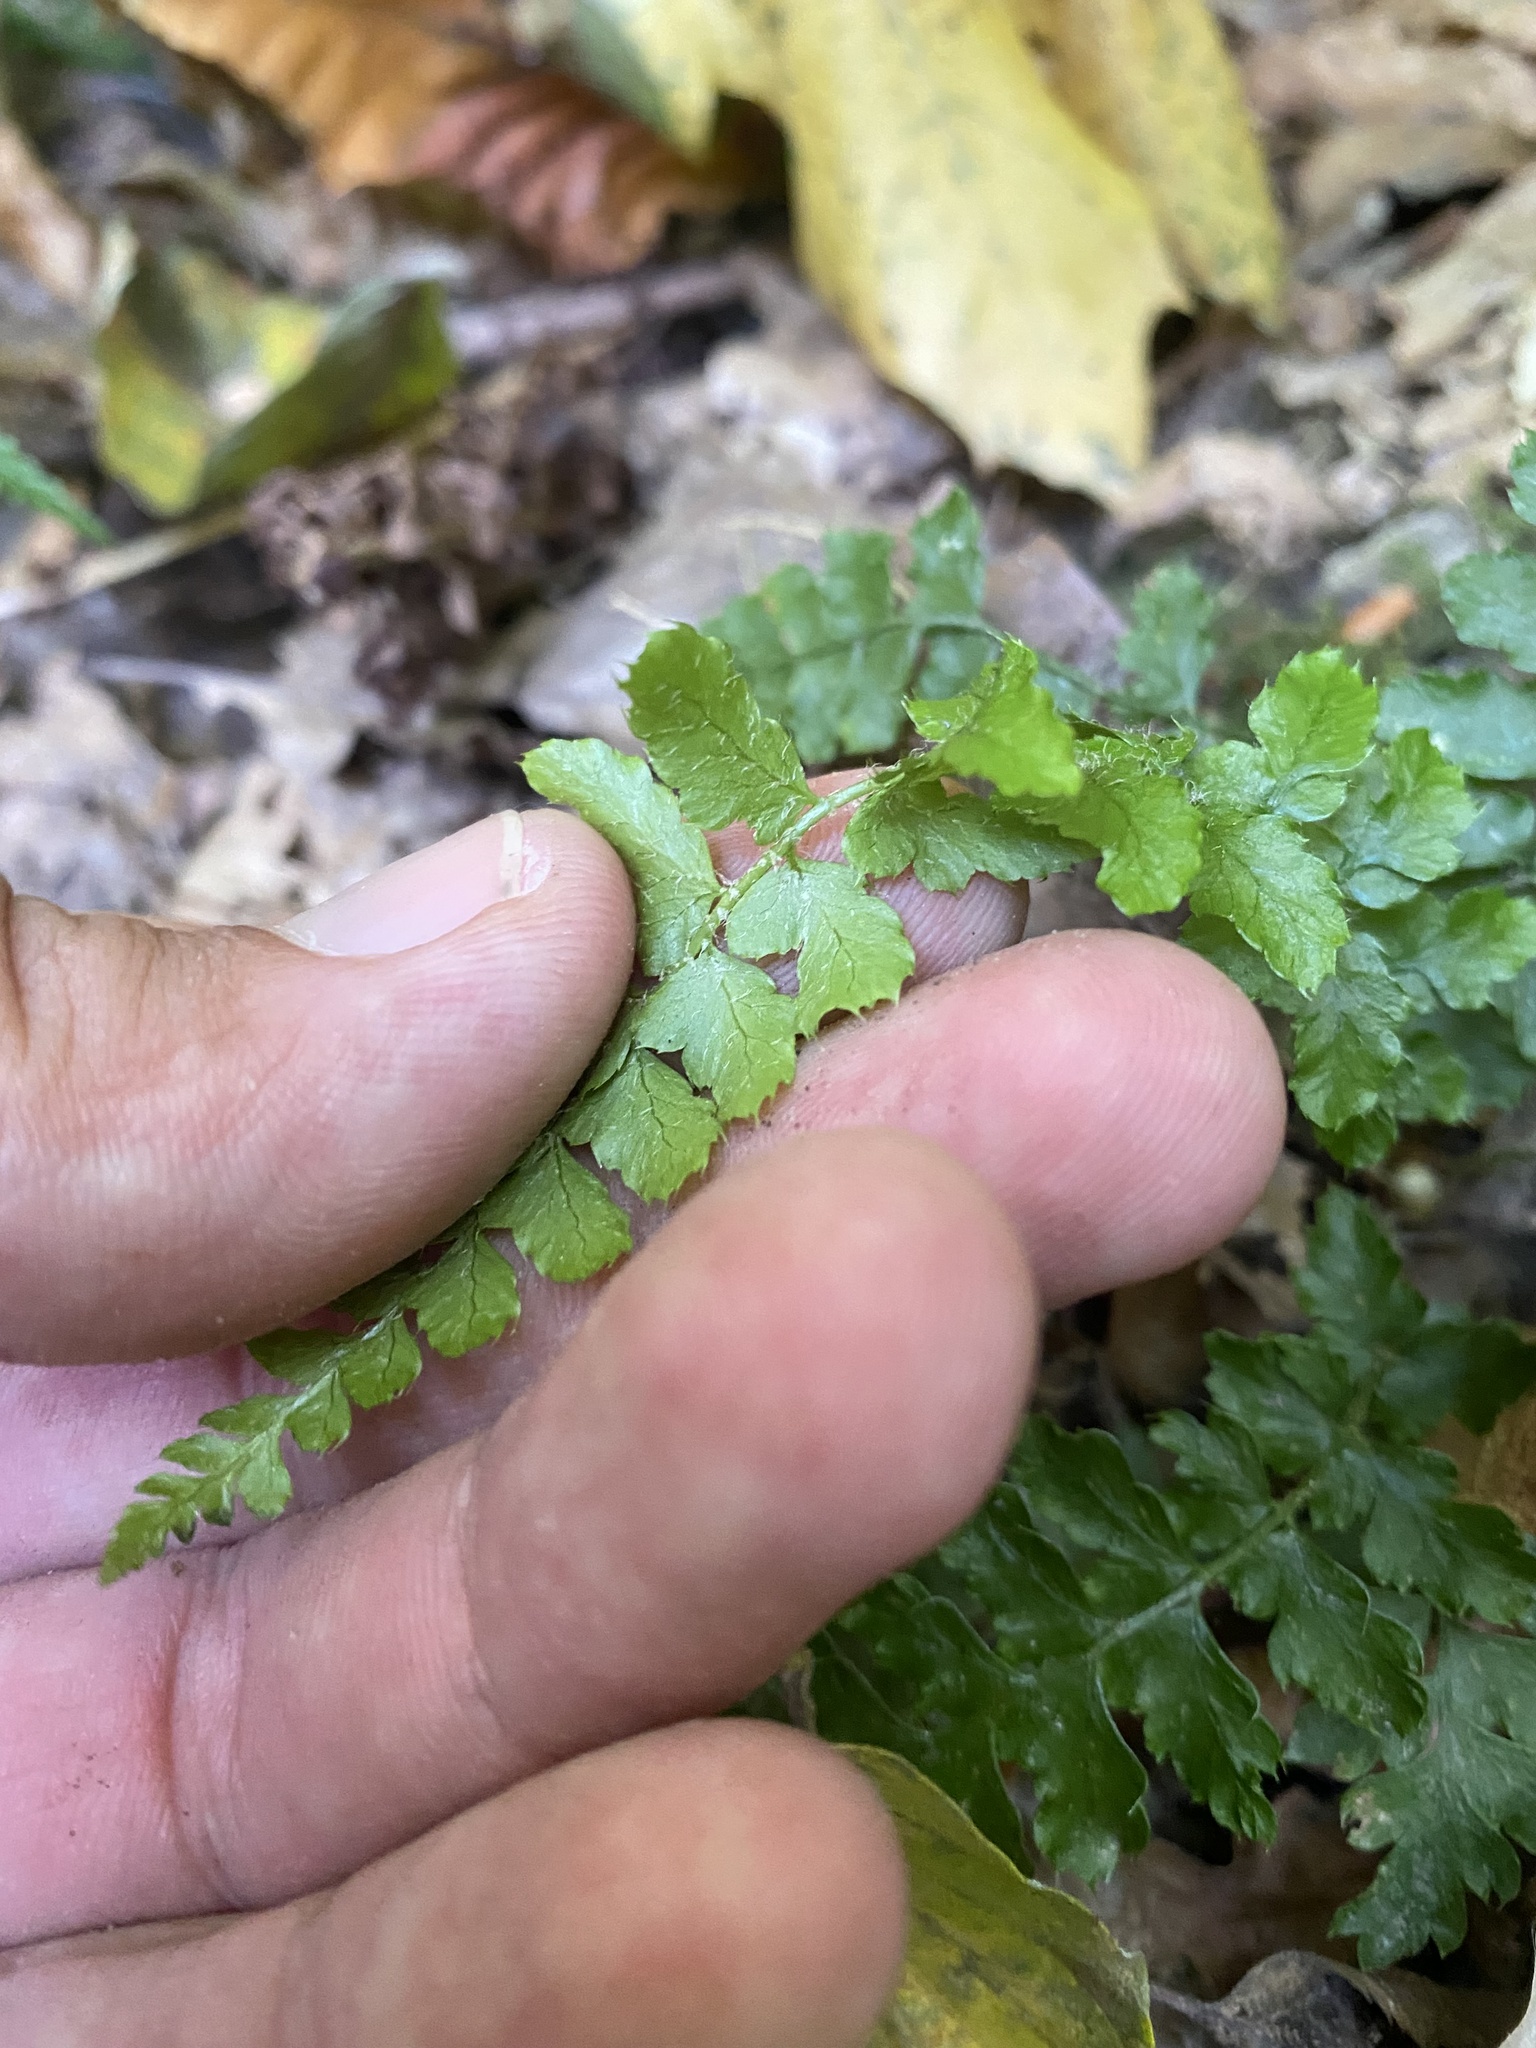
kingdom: Plantae
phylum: Tracheophyta
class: Polypodiopsida
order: Polypodiales
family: Dryopteridaceae
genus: Polystichum
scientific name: Polystichum braunii
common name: Braun's holly fern
